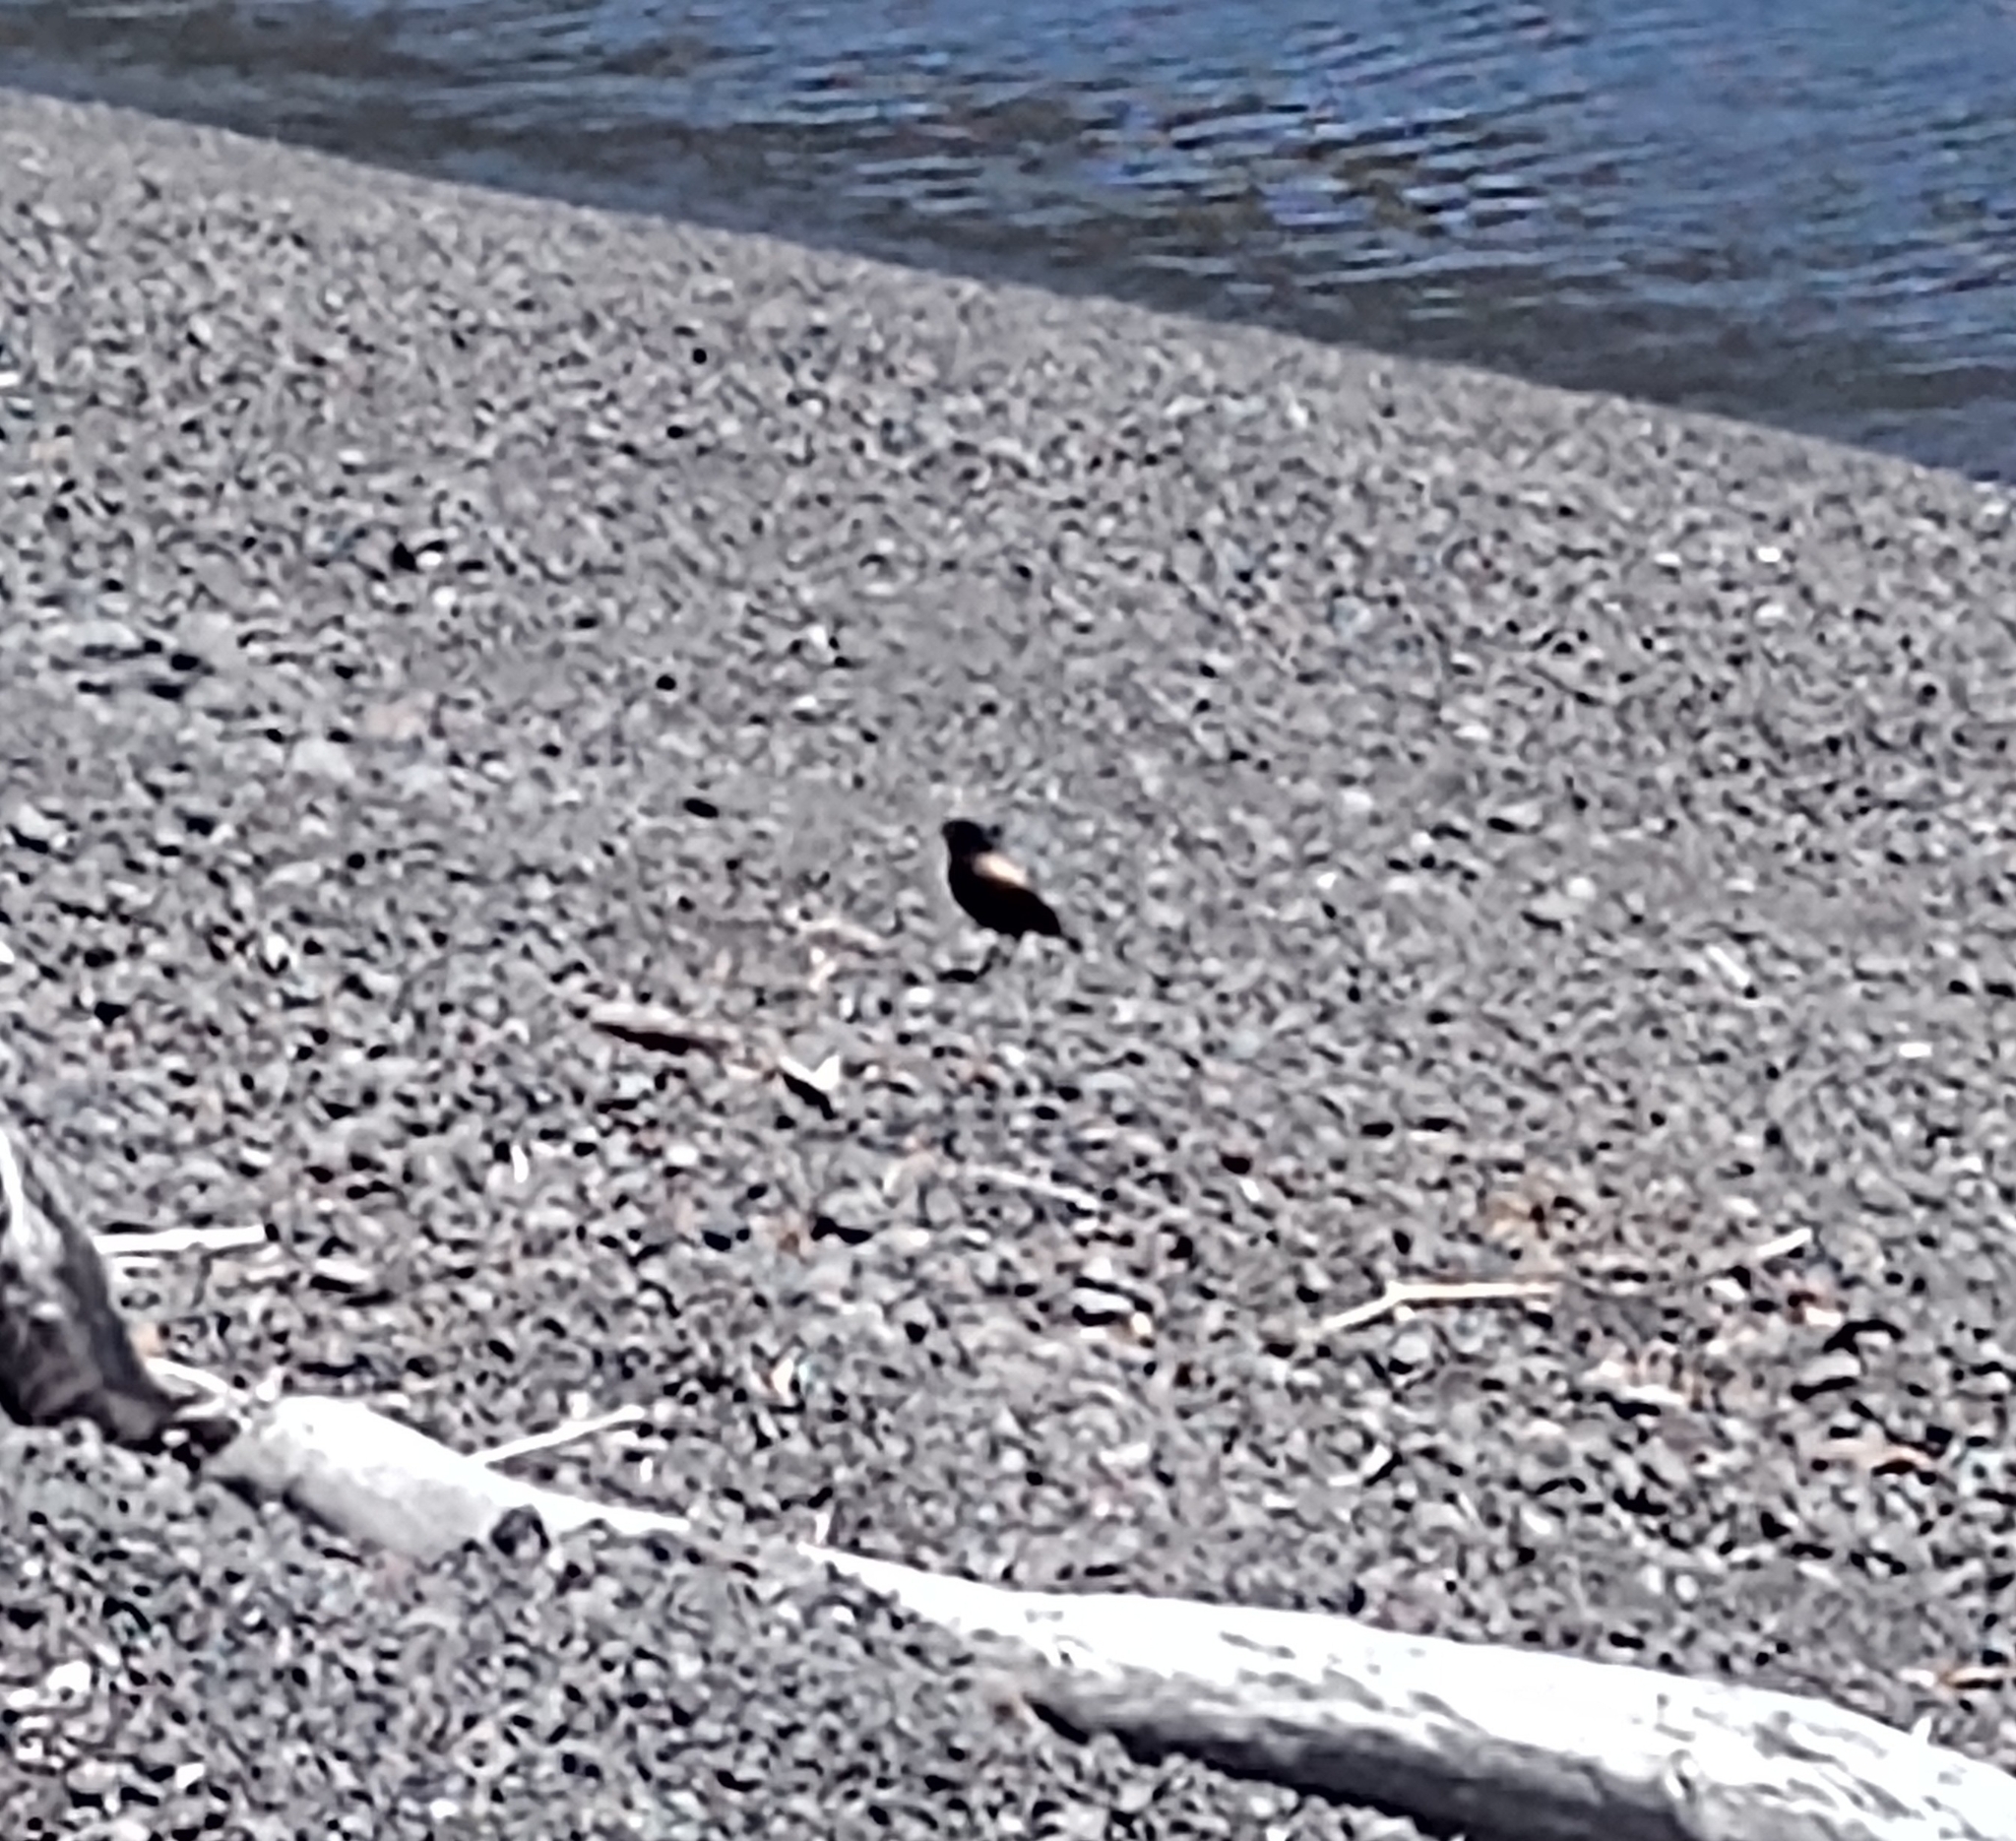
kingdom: Animalia
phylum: Chordata
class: Aves
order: Passeriformes
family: Tyrannidae
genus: Lessonia
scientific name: Lessonia rufa
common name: Austral negrito
